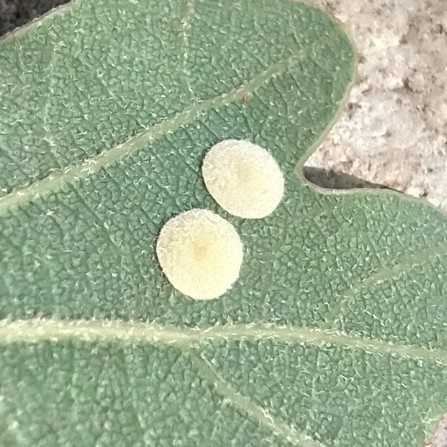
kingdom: Animalia
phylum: Arthropoda
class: Insecta
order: Hymenoptera
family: Cynipidae
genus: Neuroterus
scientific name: Neuroterus quercusbaccarum
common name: Common spangle gall
